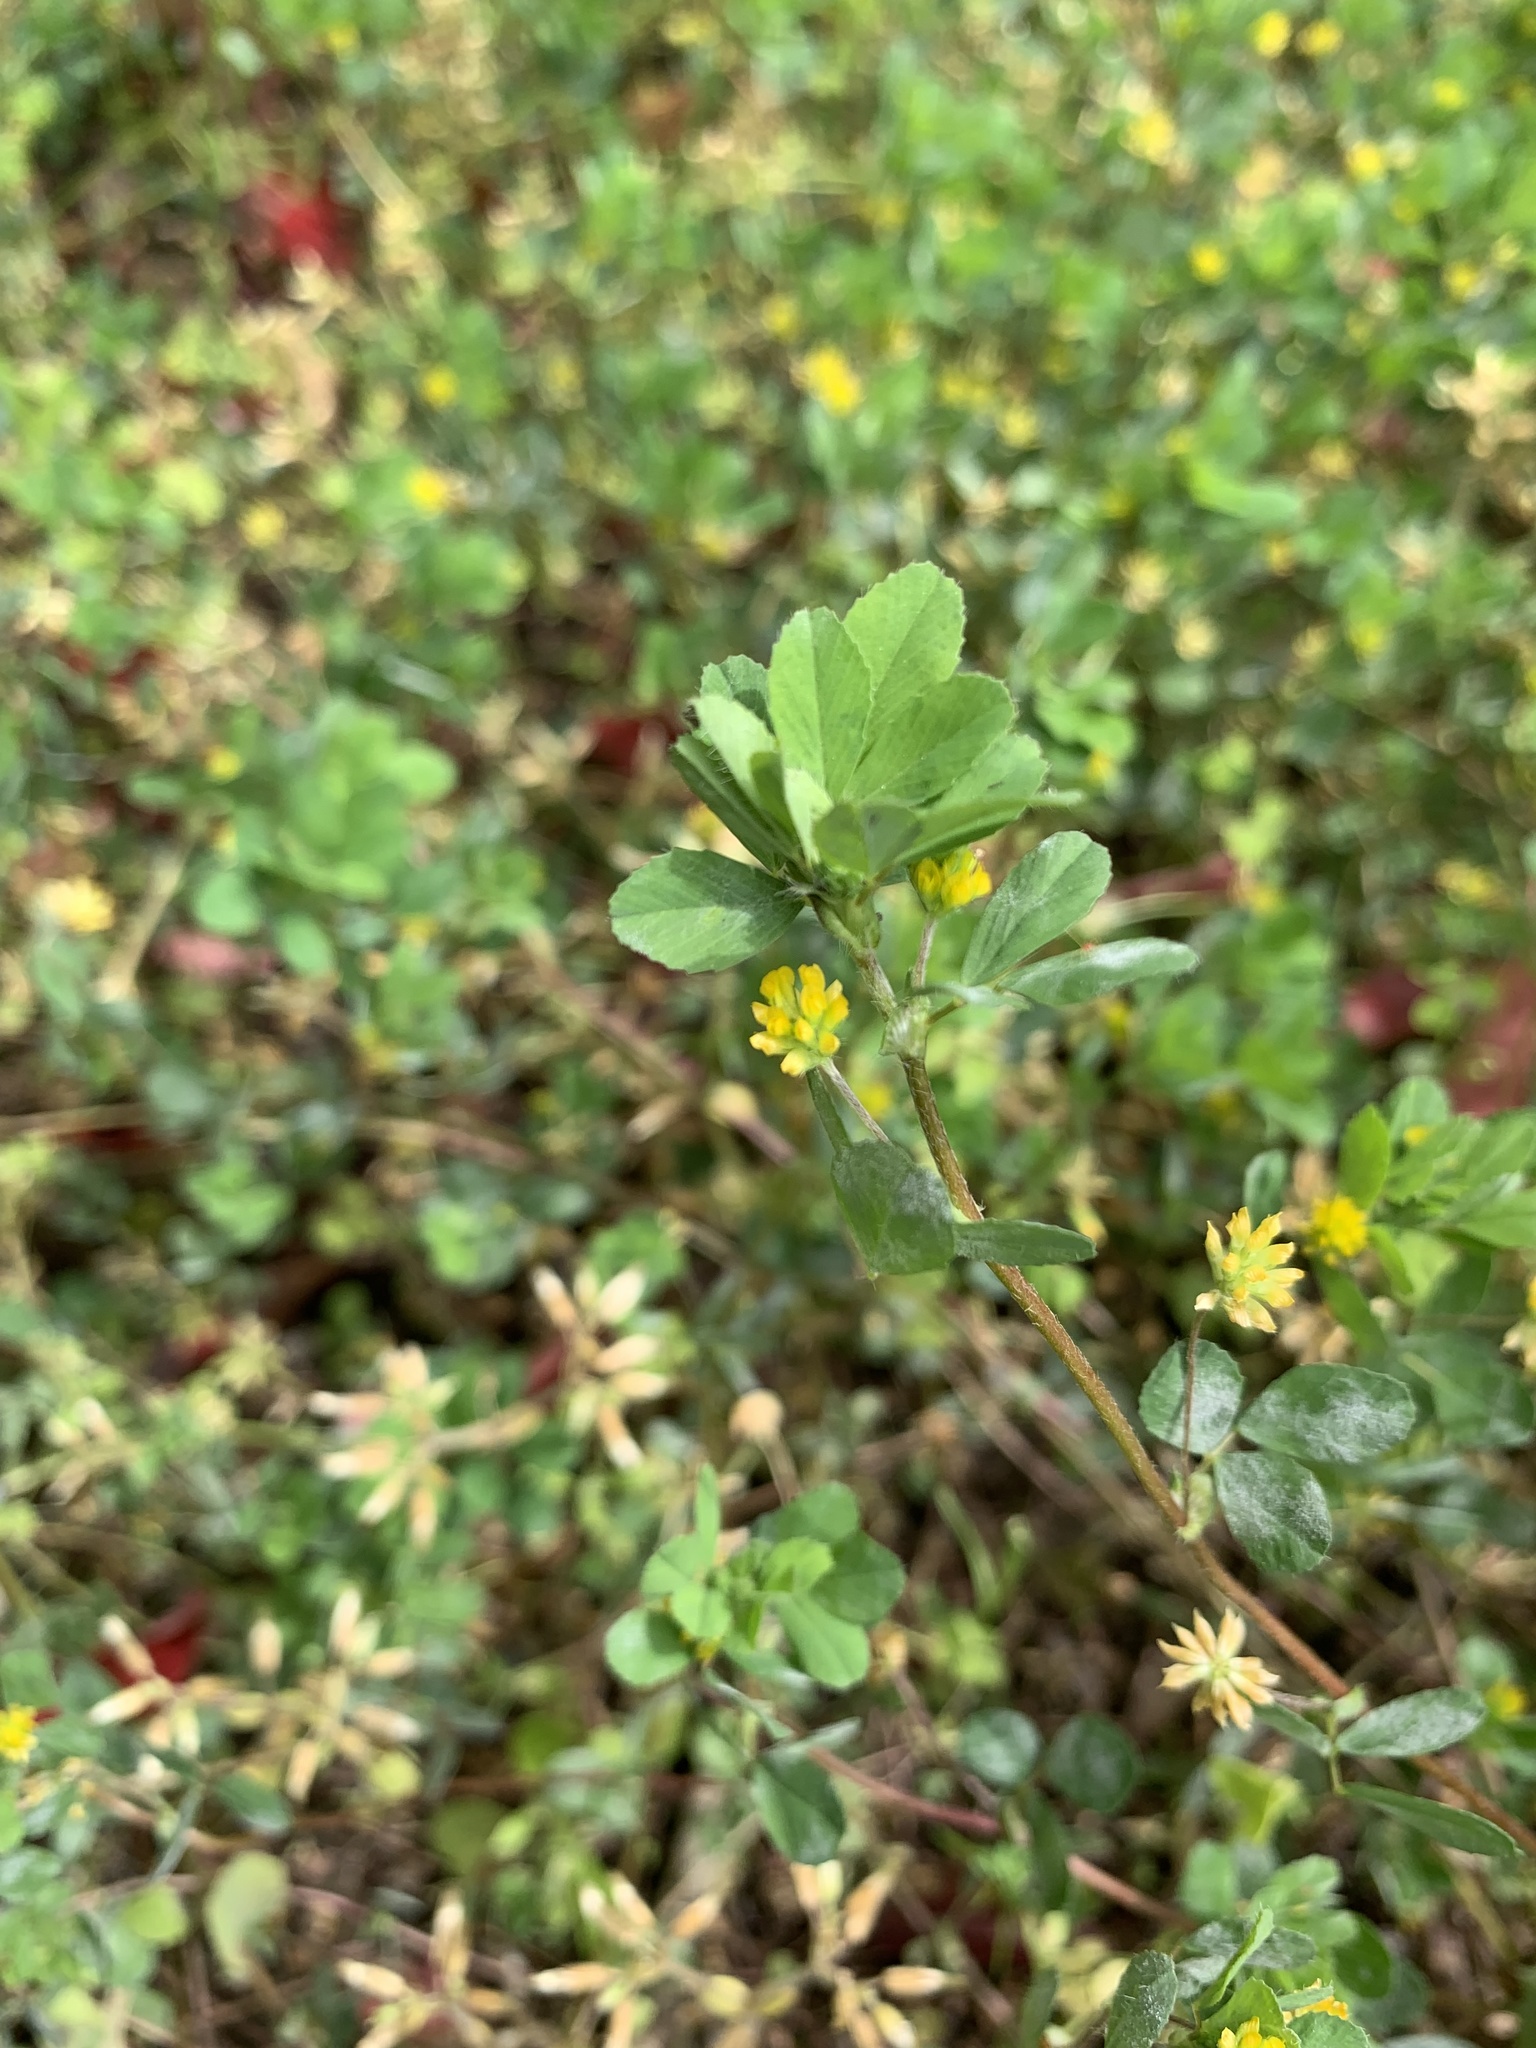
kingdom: Plantae
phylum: Tracheophyta
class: Magnoliopsida
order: Fabales
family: Fabaceae
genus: Trifolium
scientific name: Trifolium dubium
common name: Suckling clover
